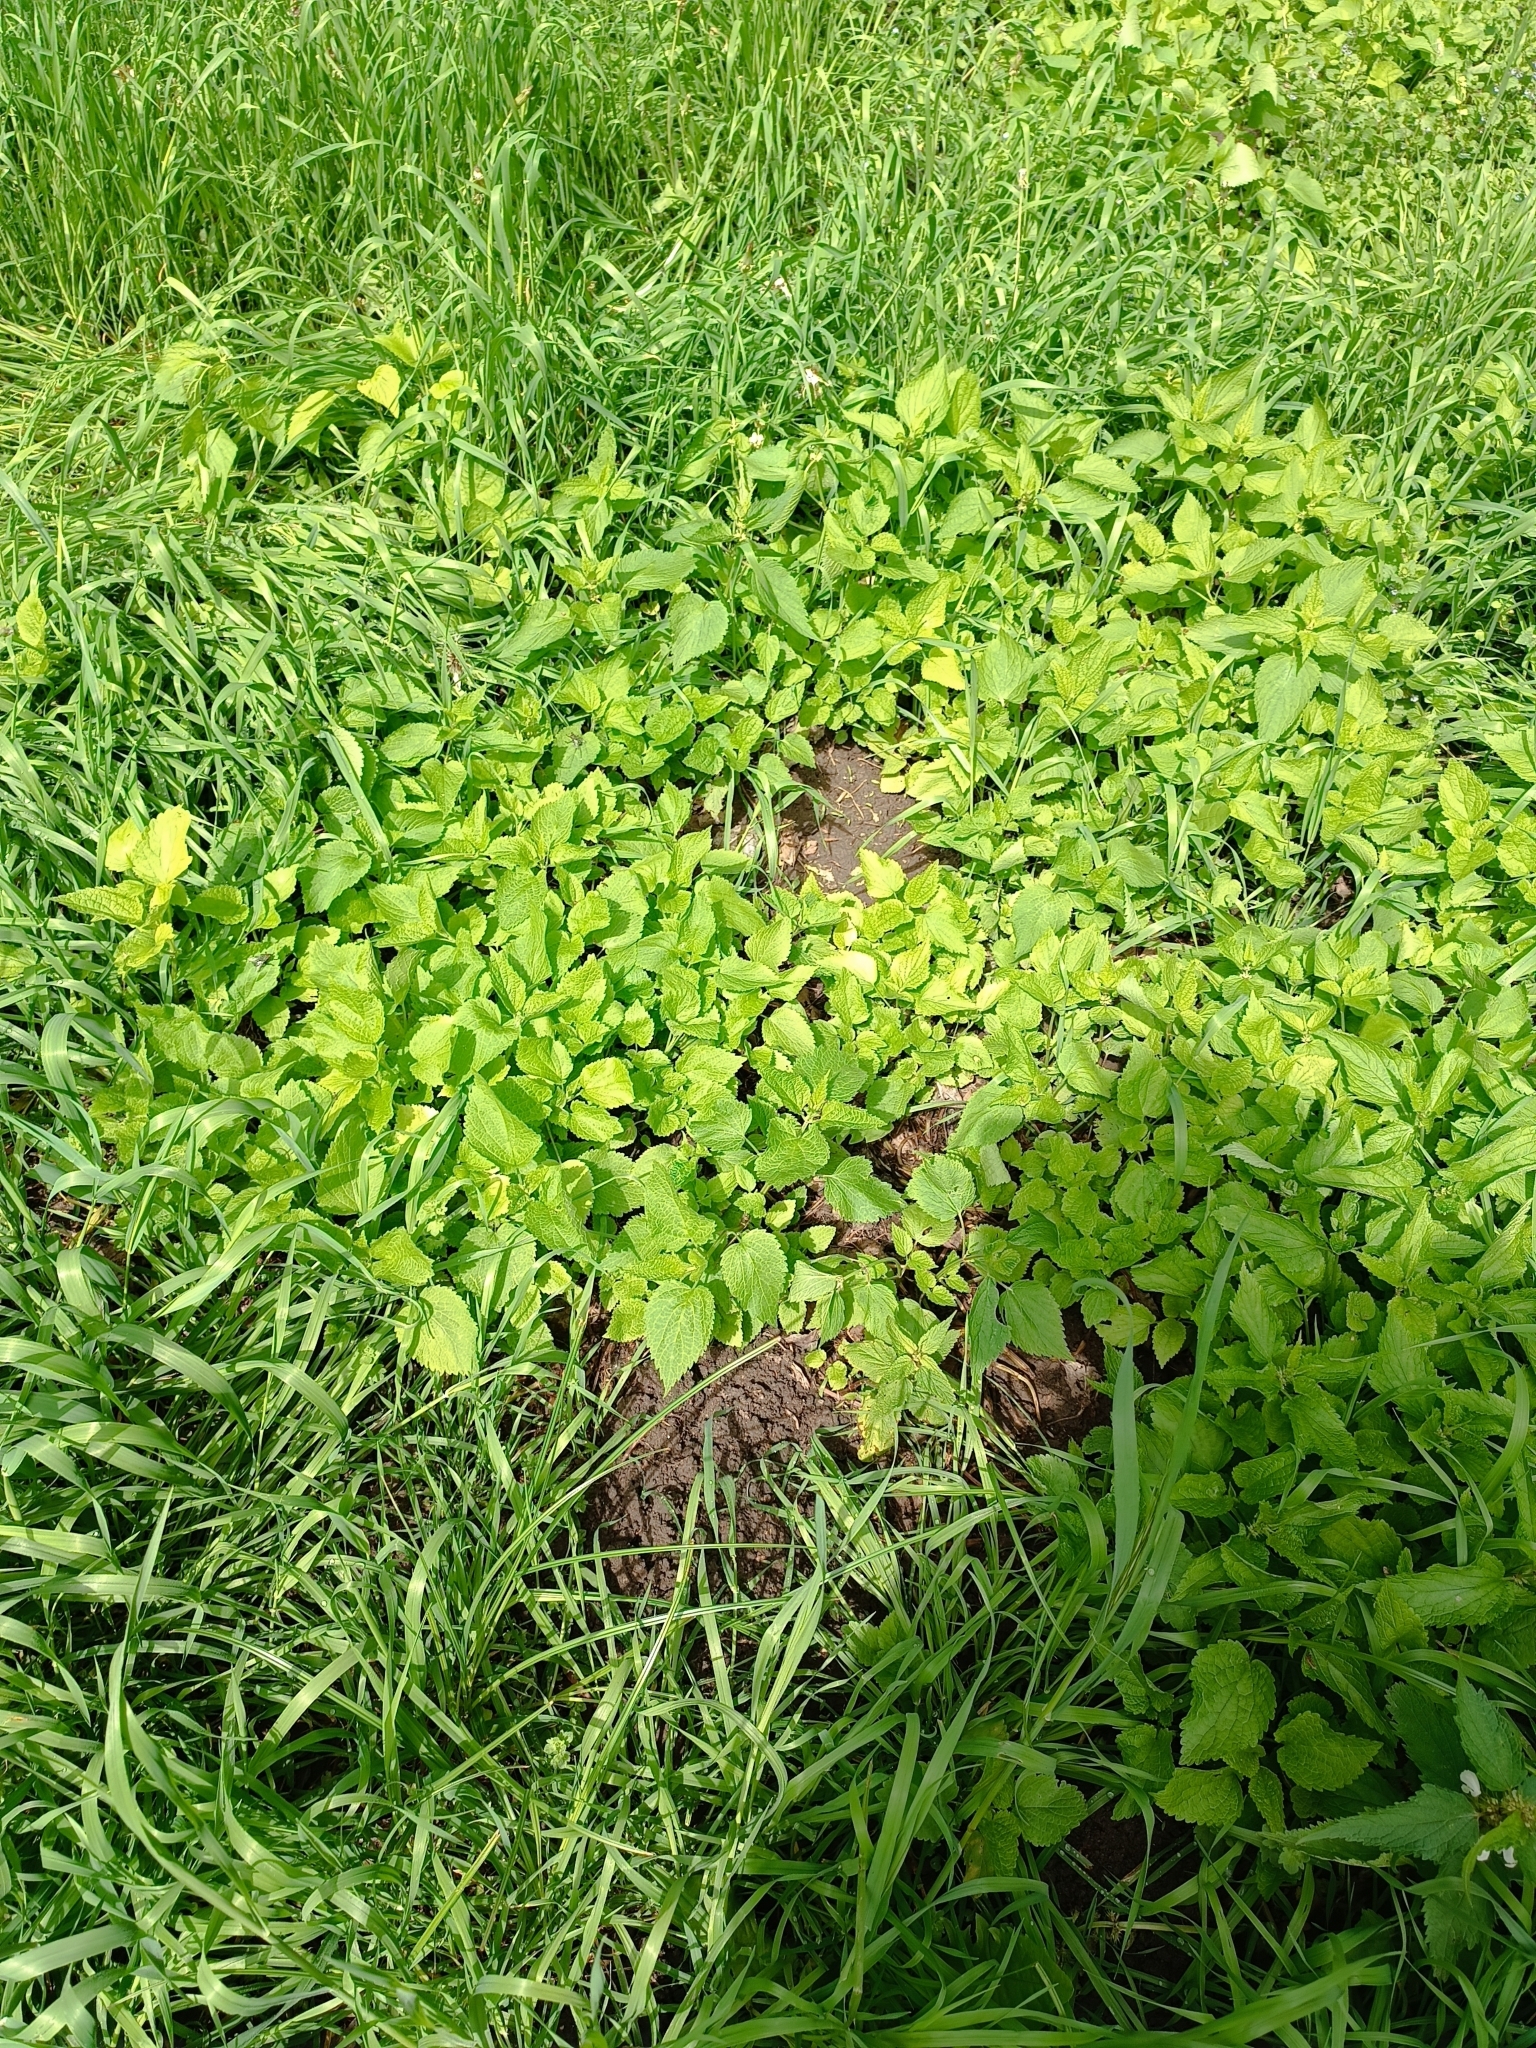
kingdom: Plantae
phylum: Tracheophyta
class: Magnoliopsida
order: Lamiales
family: Lamiaceae
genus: Lamium
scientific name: Lamium album
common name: White dead-nettle
